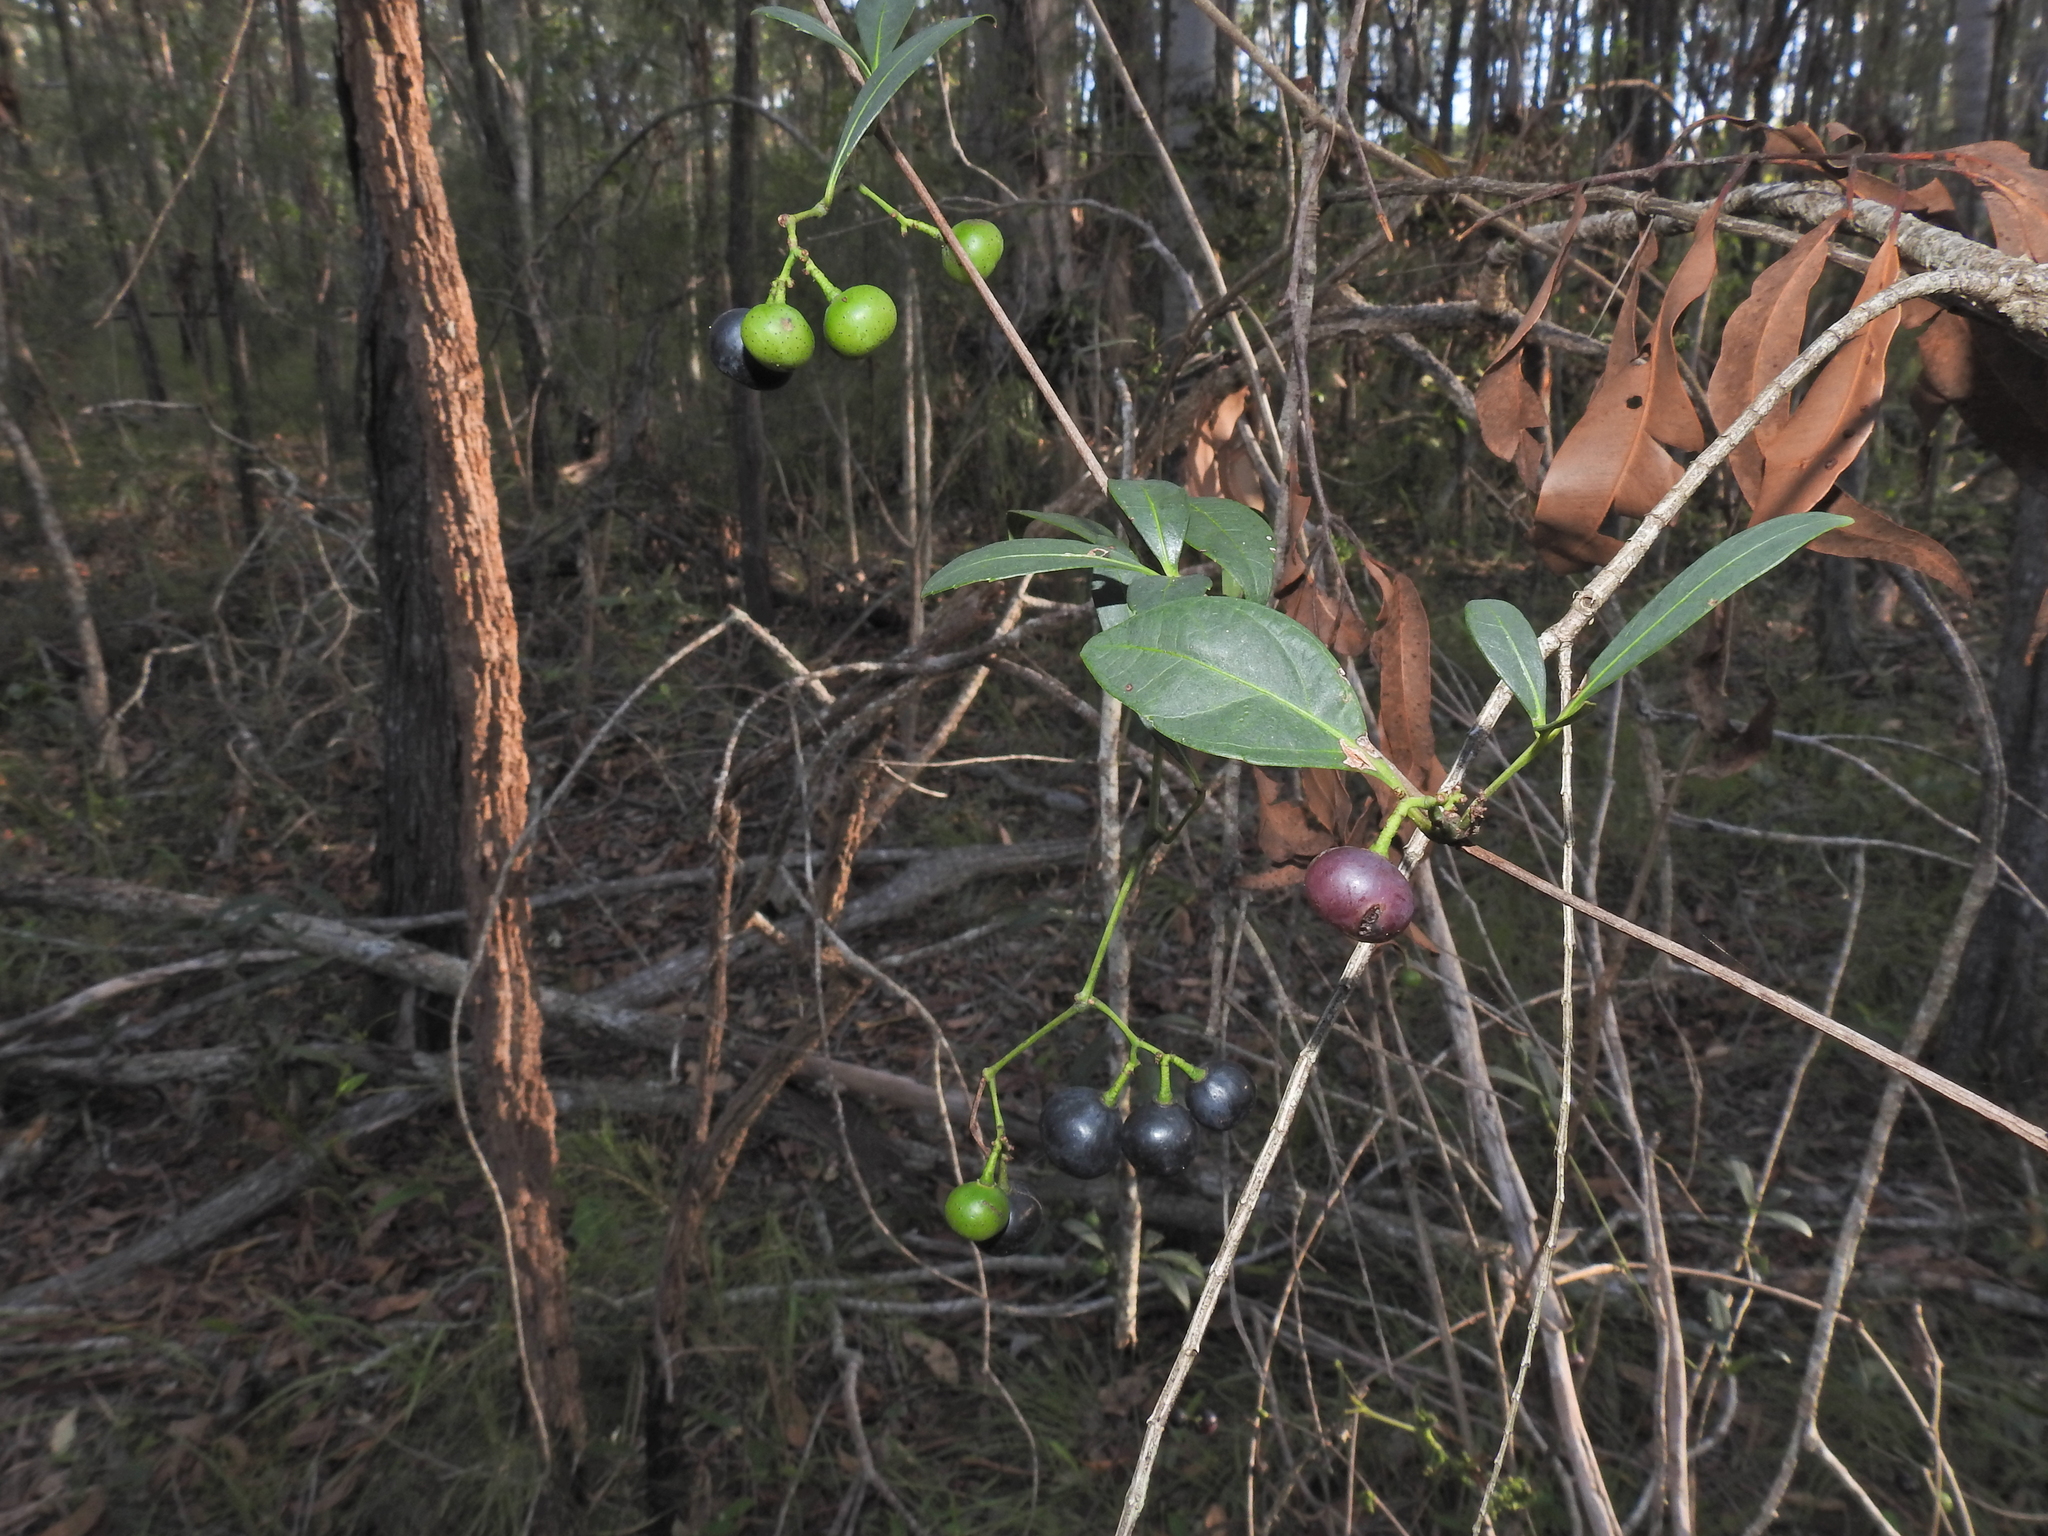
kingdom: Plantae
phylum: Tracheophyta
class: Magnoliopsida
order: Vitales
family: Vitaceae
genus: Clematicissus
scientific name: Clematicissus opaca
